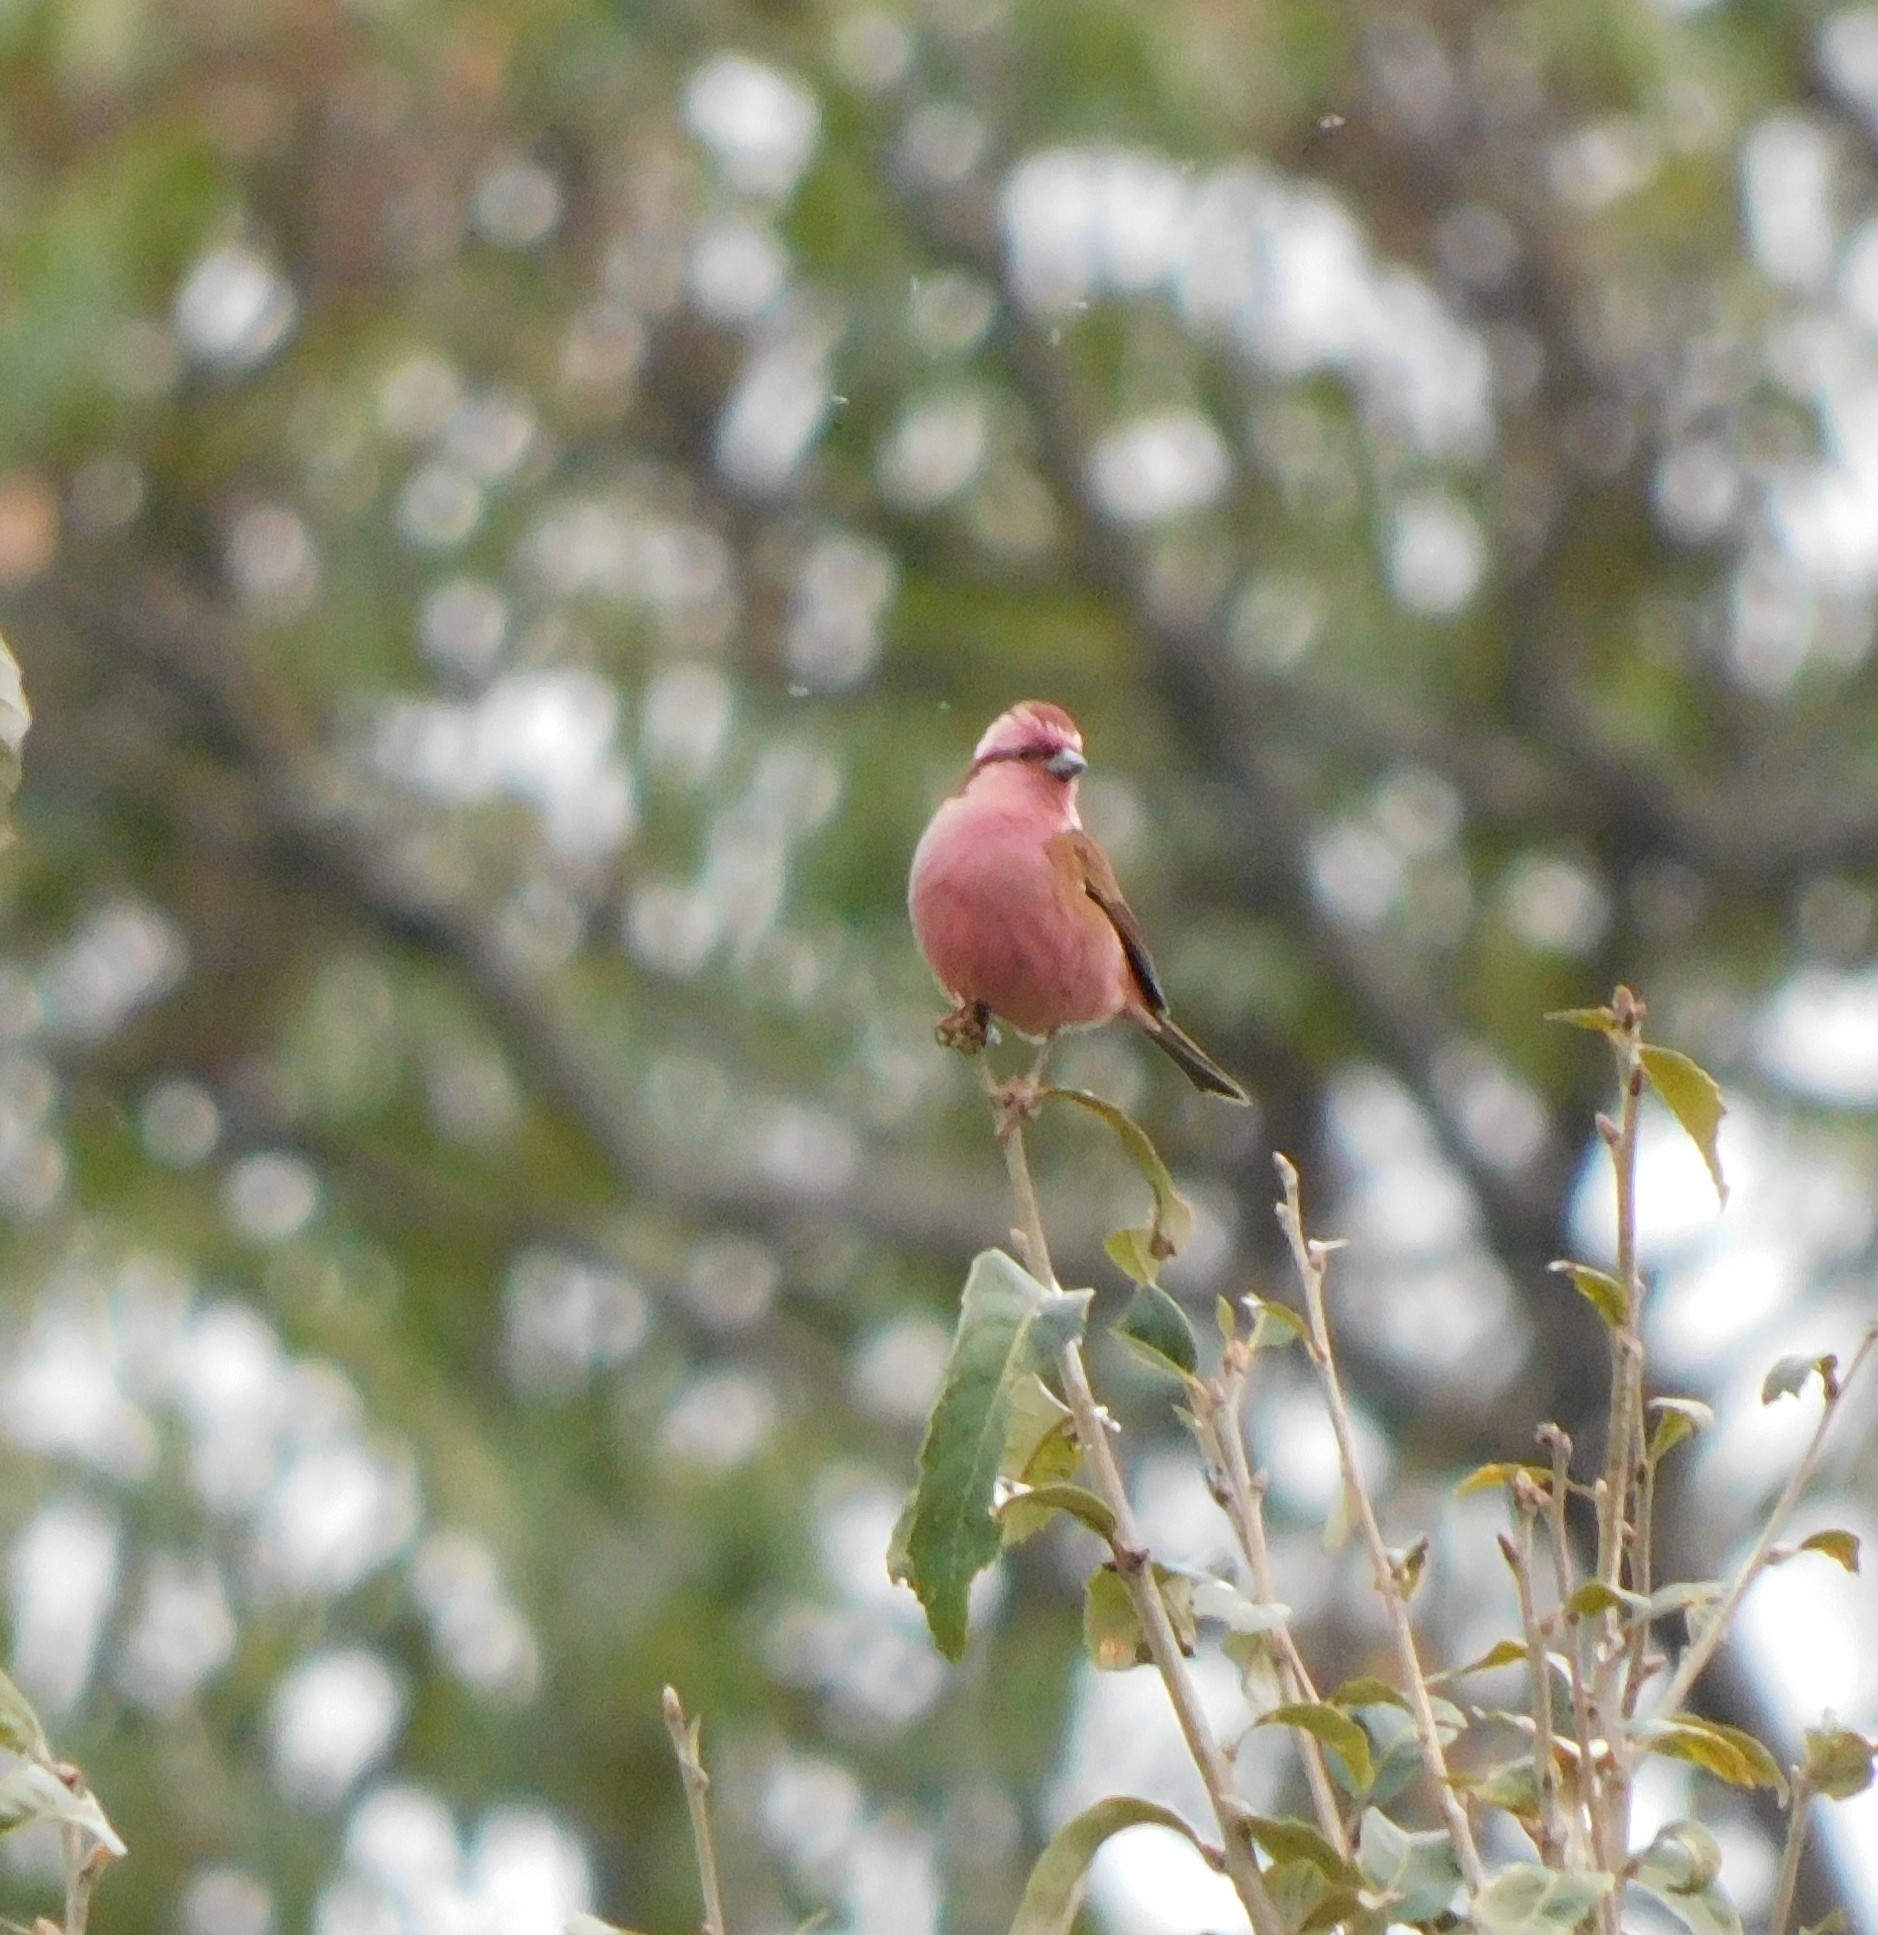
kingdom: Animalia
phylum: Chordata
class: Aves
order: Passeriformes
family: Fringillidae
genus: Carpodacus
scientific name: Carpodacus rodochroa
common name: Pink-browed rosefinch
